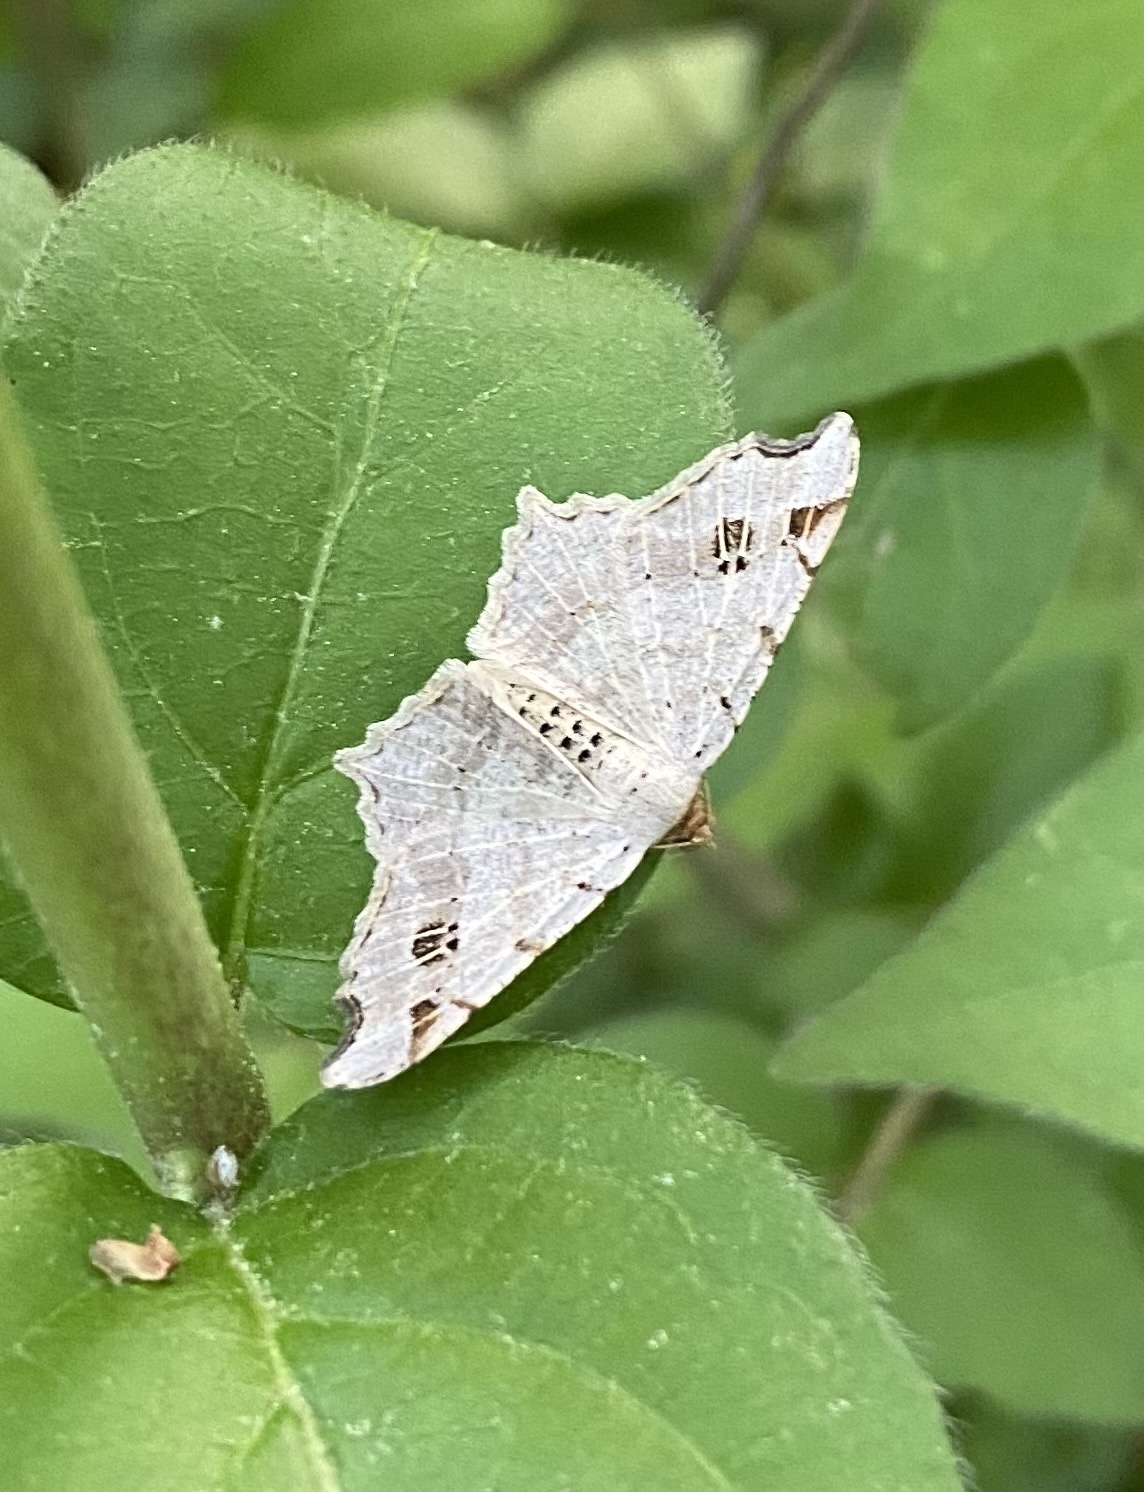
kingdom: Animalia
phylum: Arthropoda
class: Insecta
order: Lepidoptera
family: Geometridae
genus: Macaria
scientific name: Macaria aemulataria
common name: Common angle
